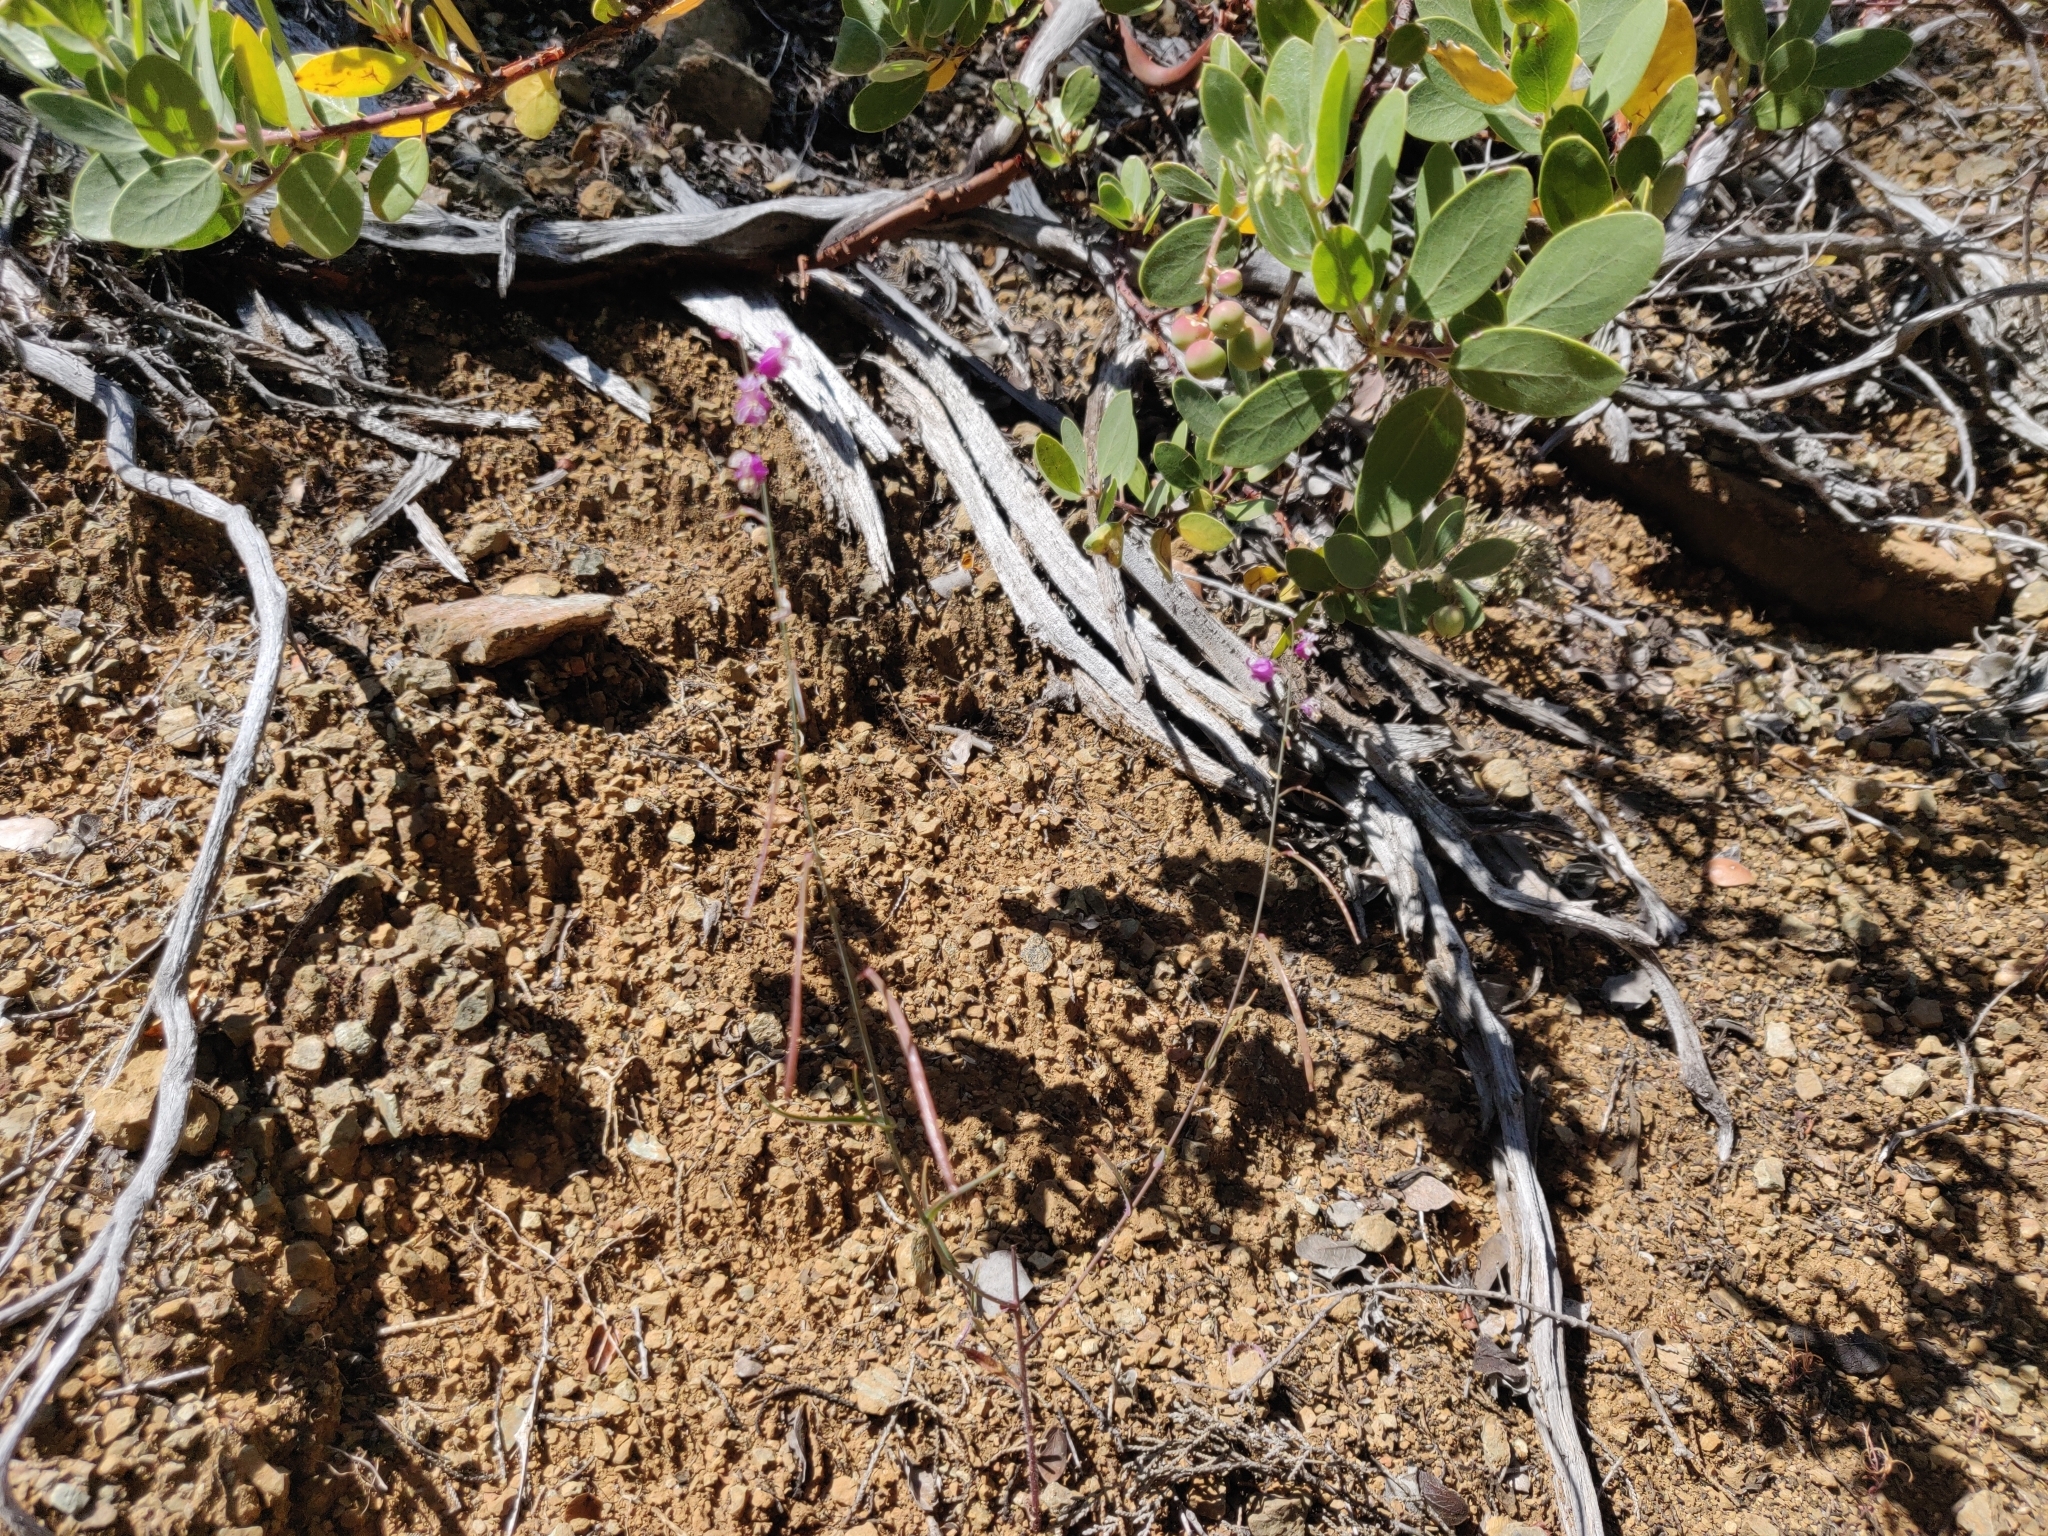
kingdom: Plantae
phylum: Tracheophyta
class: Magnoliopsida
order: Brassicales
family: Brassicaceae
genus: Streptanthus
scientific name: Streptanthus glandulosus
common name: Jewel-flower
